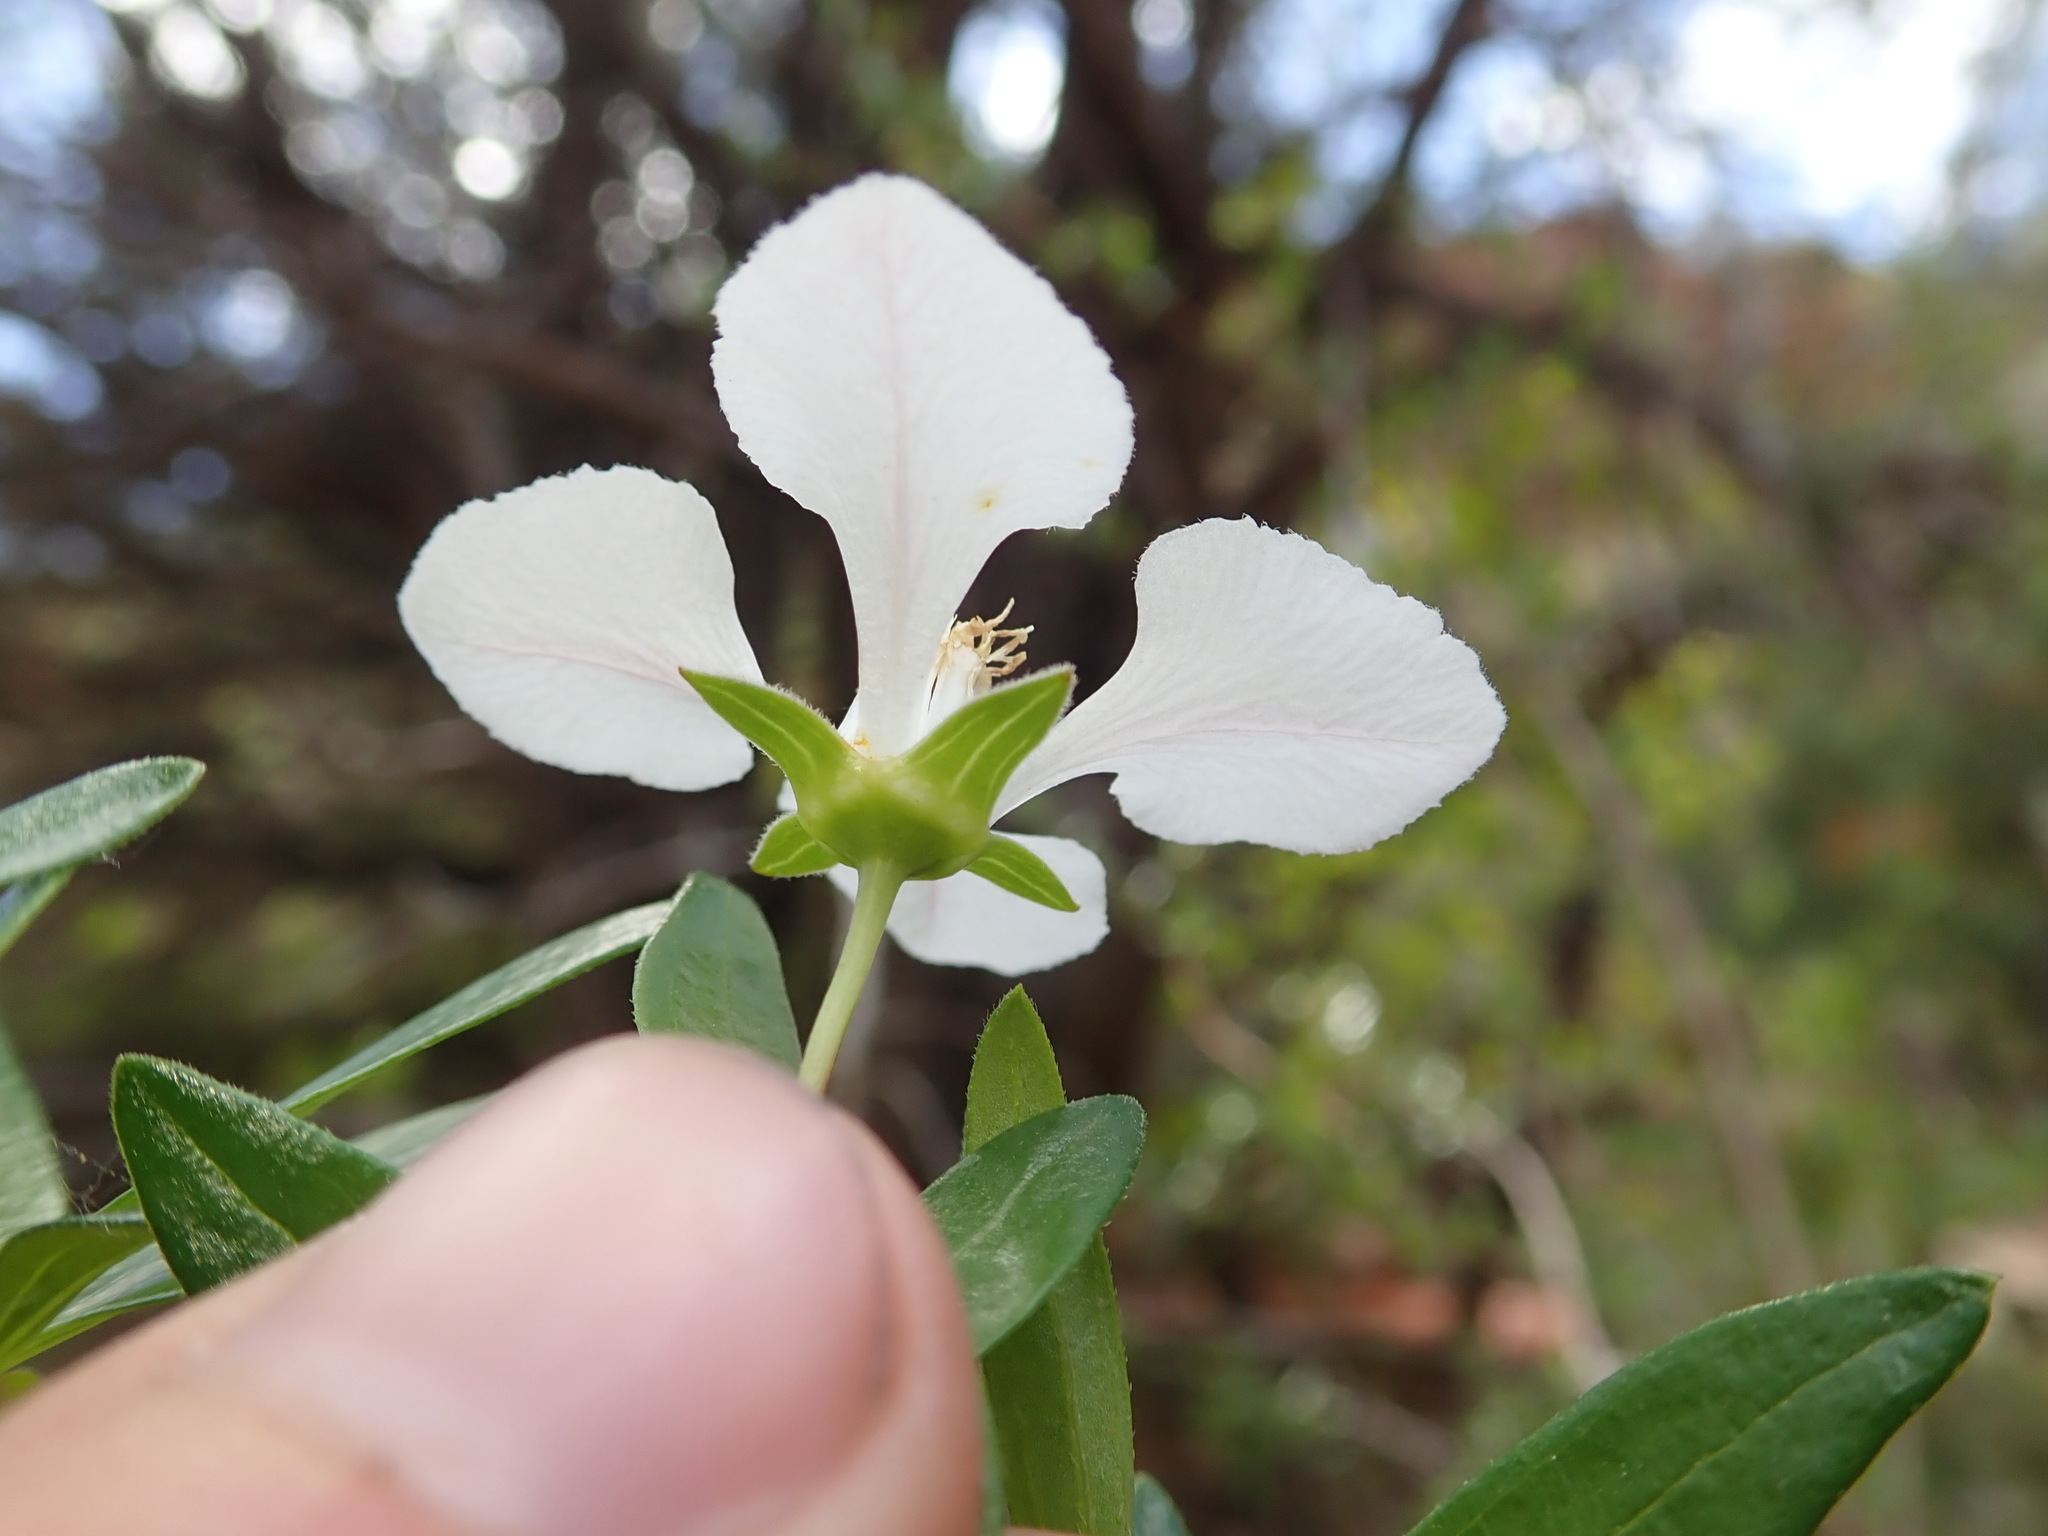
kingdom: Plantae
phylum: Tracheophyta
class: Magnoliopsida
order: Cornales
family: Hydrangeaceae
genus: Fendlera
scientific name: Fendlera rupicola
